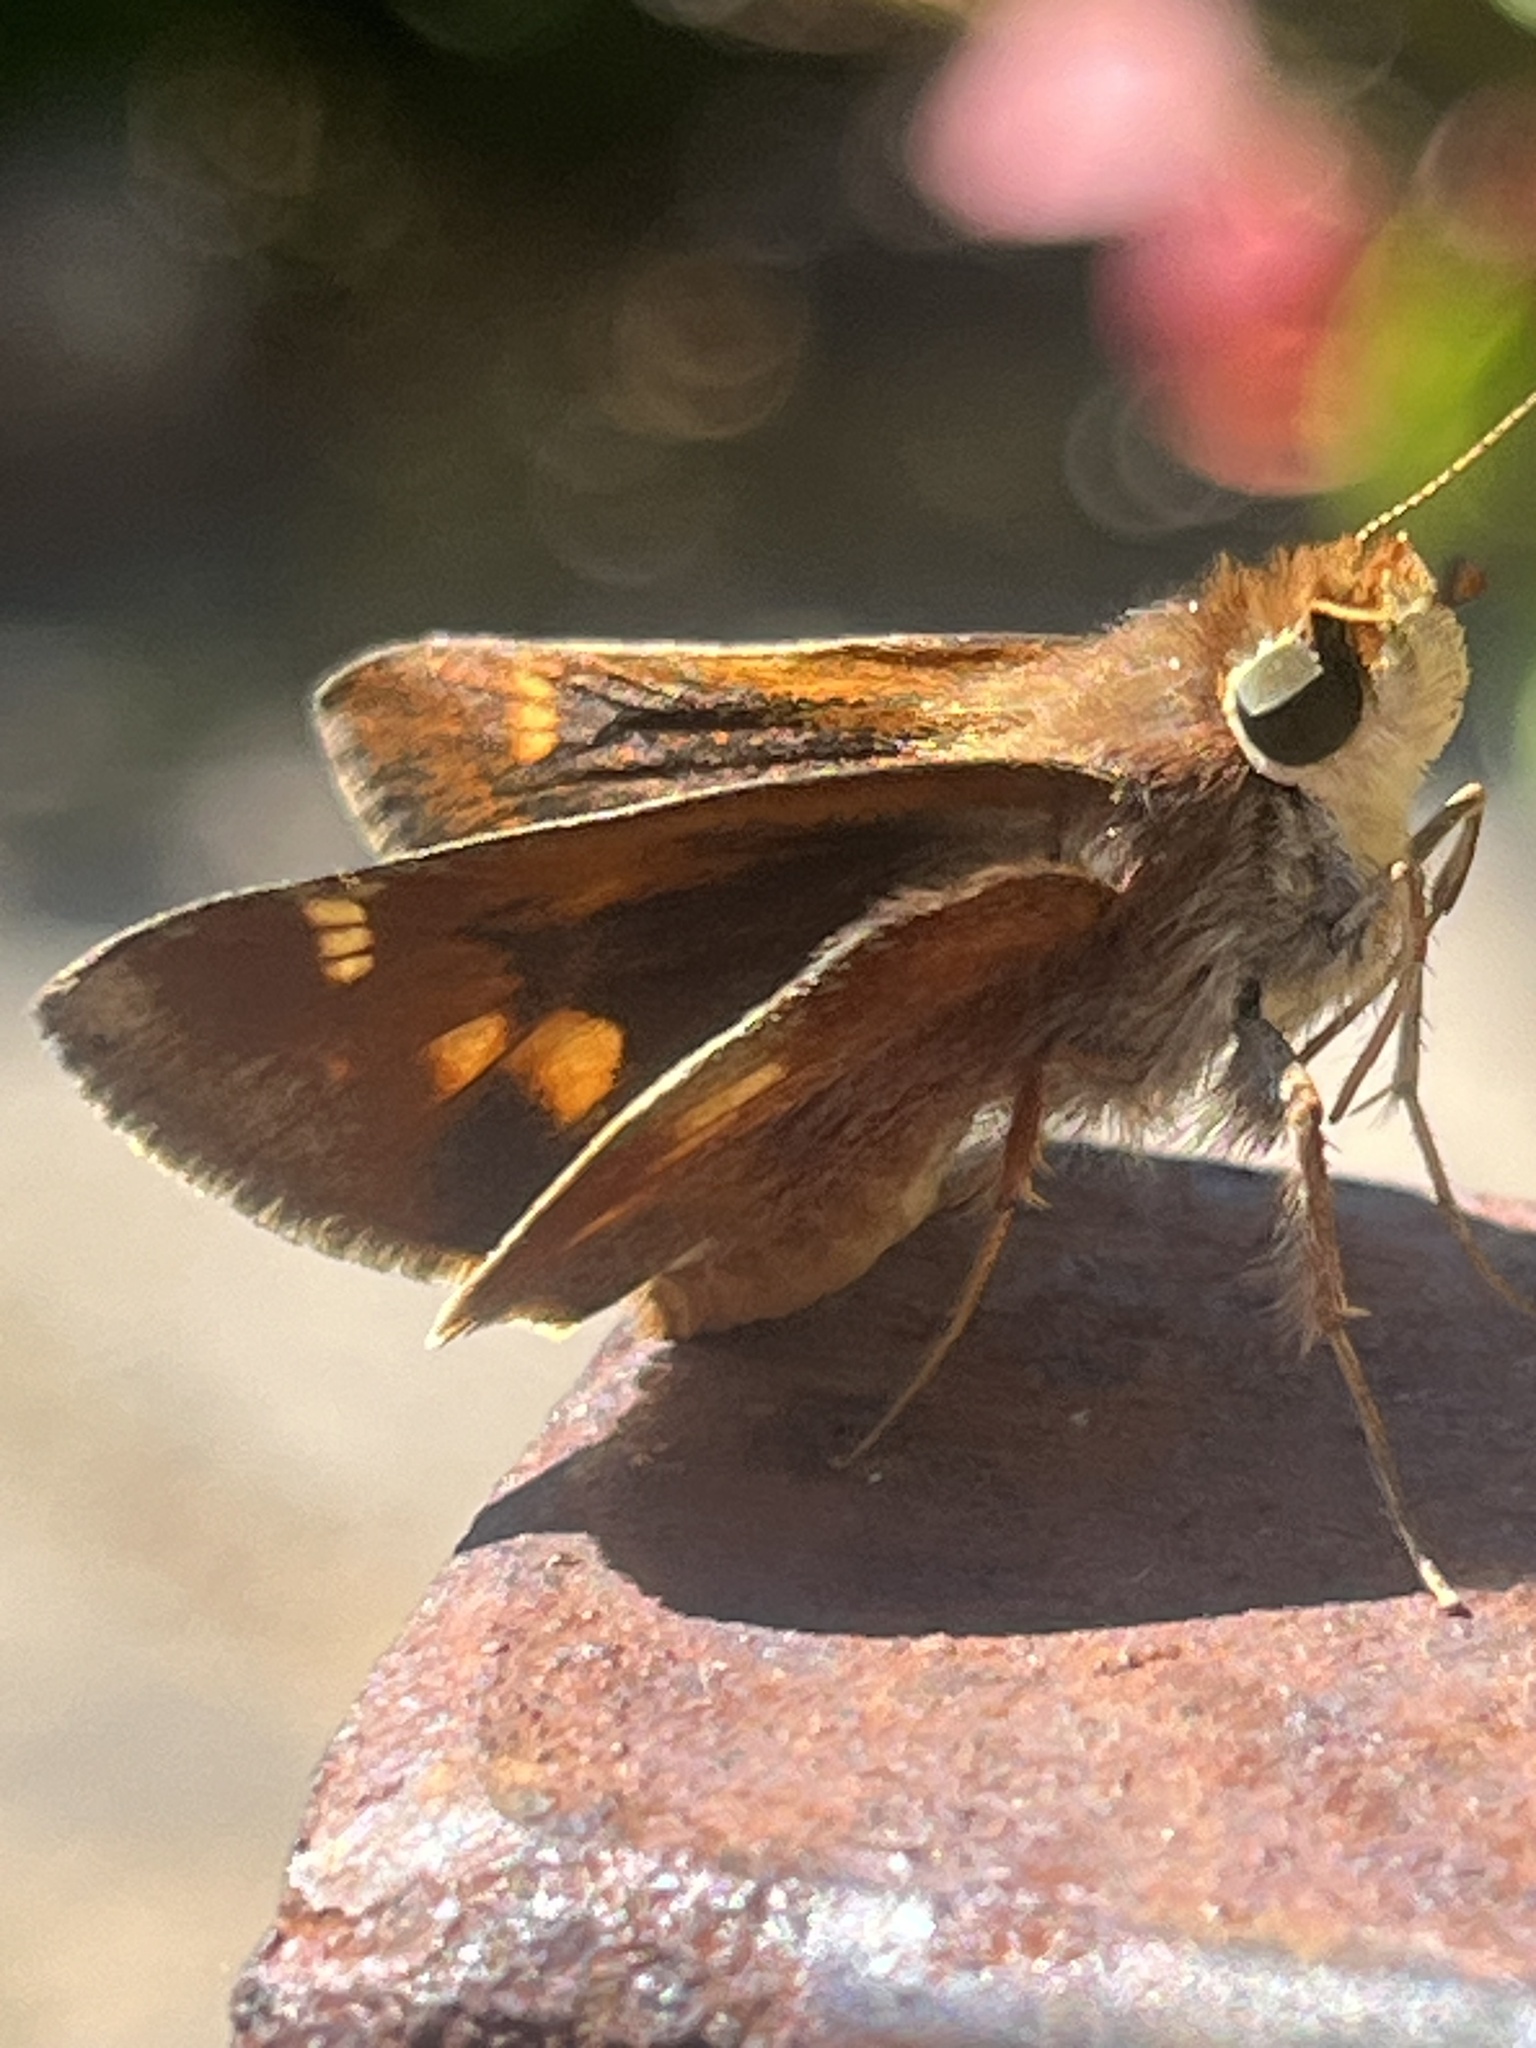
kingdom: Animalia
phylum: Arthropoda
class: Insecta
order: Lepidoptera
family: Hesperiidae
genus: Lon
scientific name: Lon melane
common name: Umber skipper
